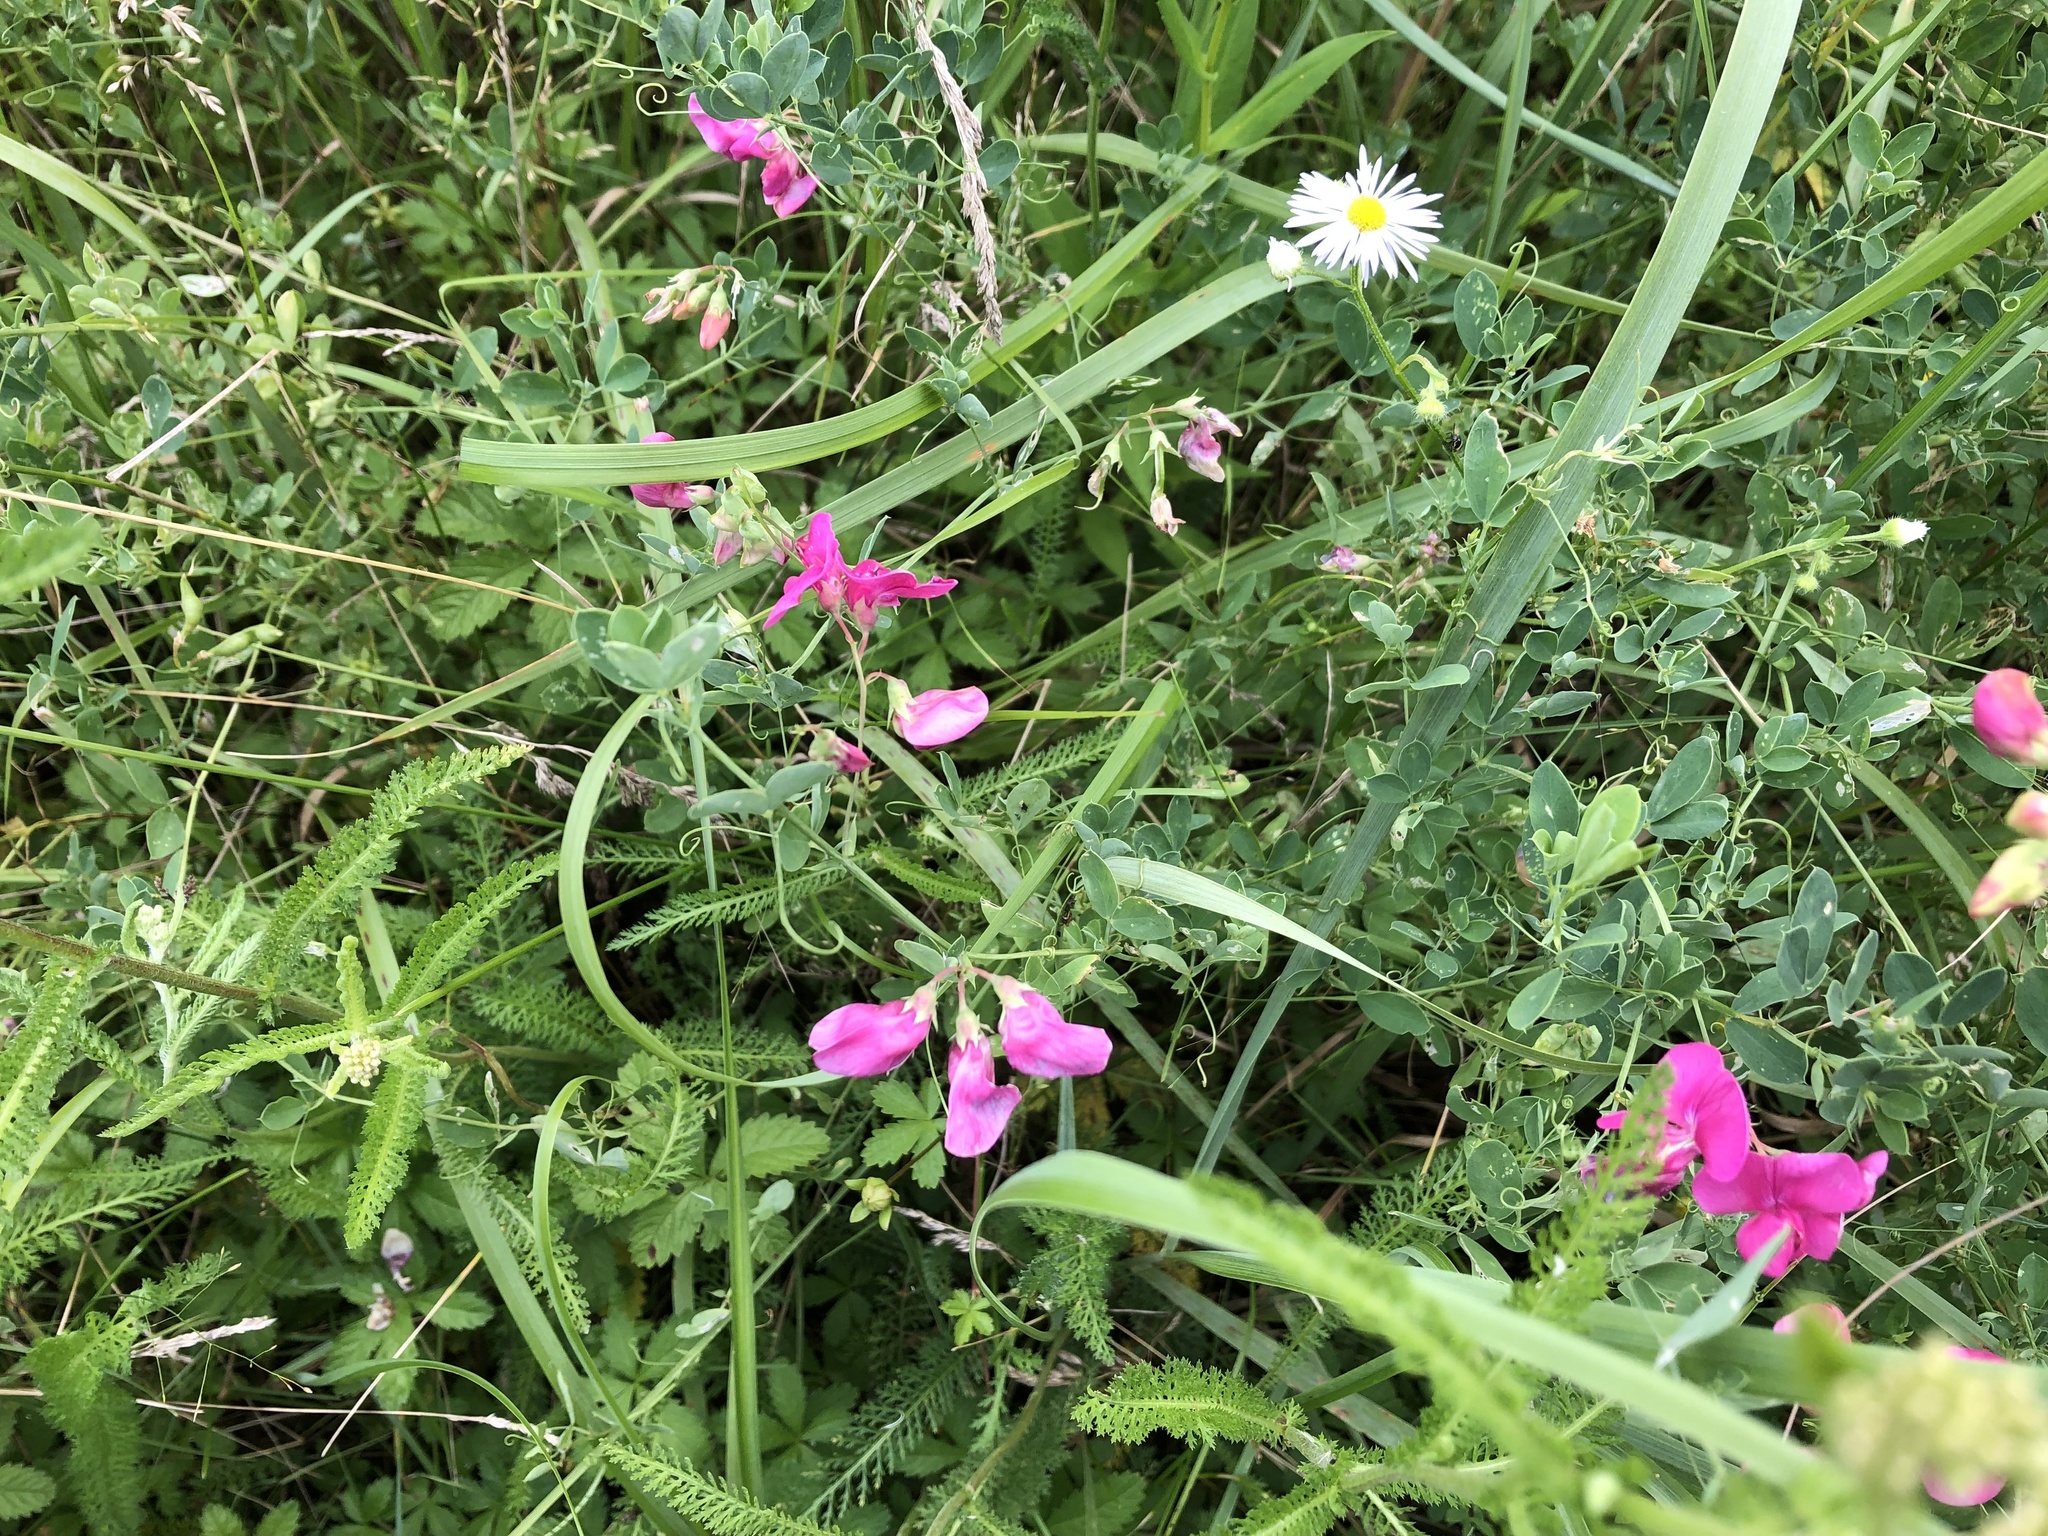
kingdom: Plantae
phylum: Tracheophyta
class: Magnoliopsida
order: Fabales
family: Fabaceae
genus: Lathyrus
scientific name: Lathyrus tuberosus
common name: Tuberous pea
